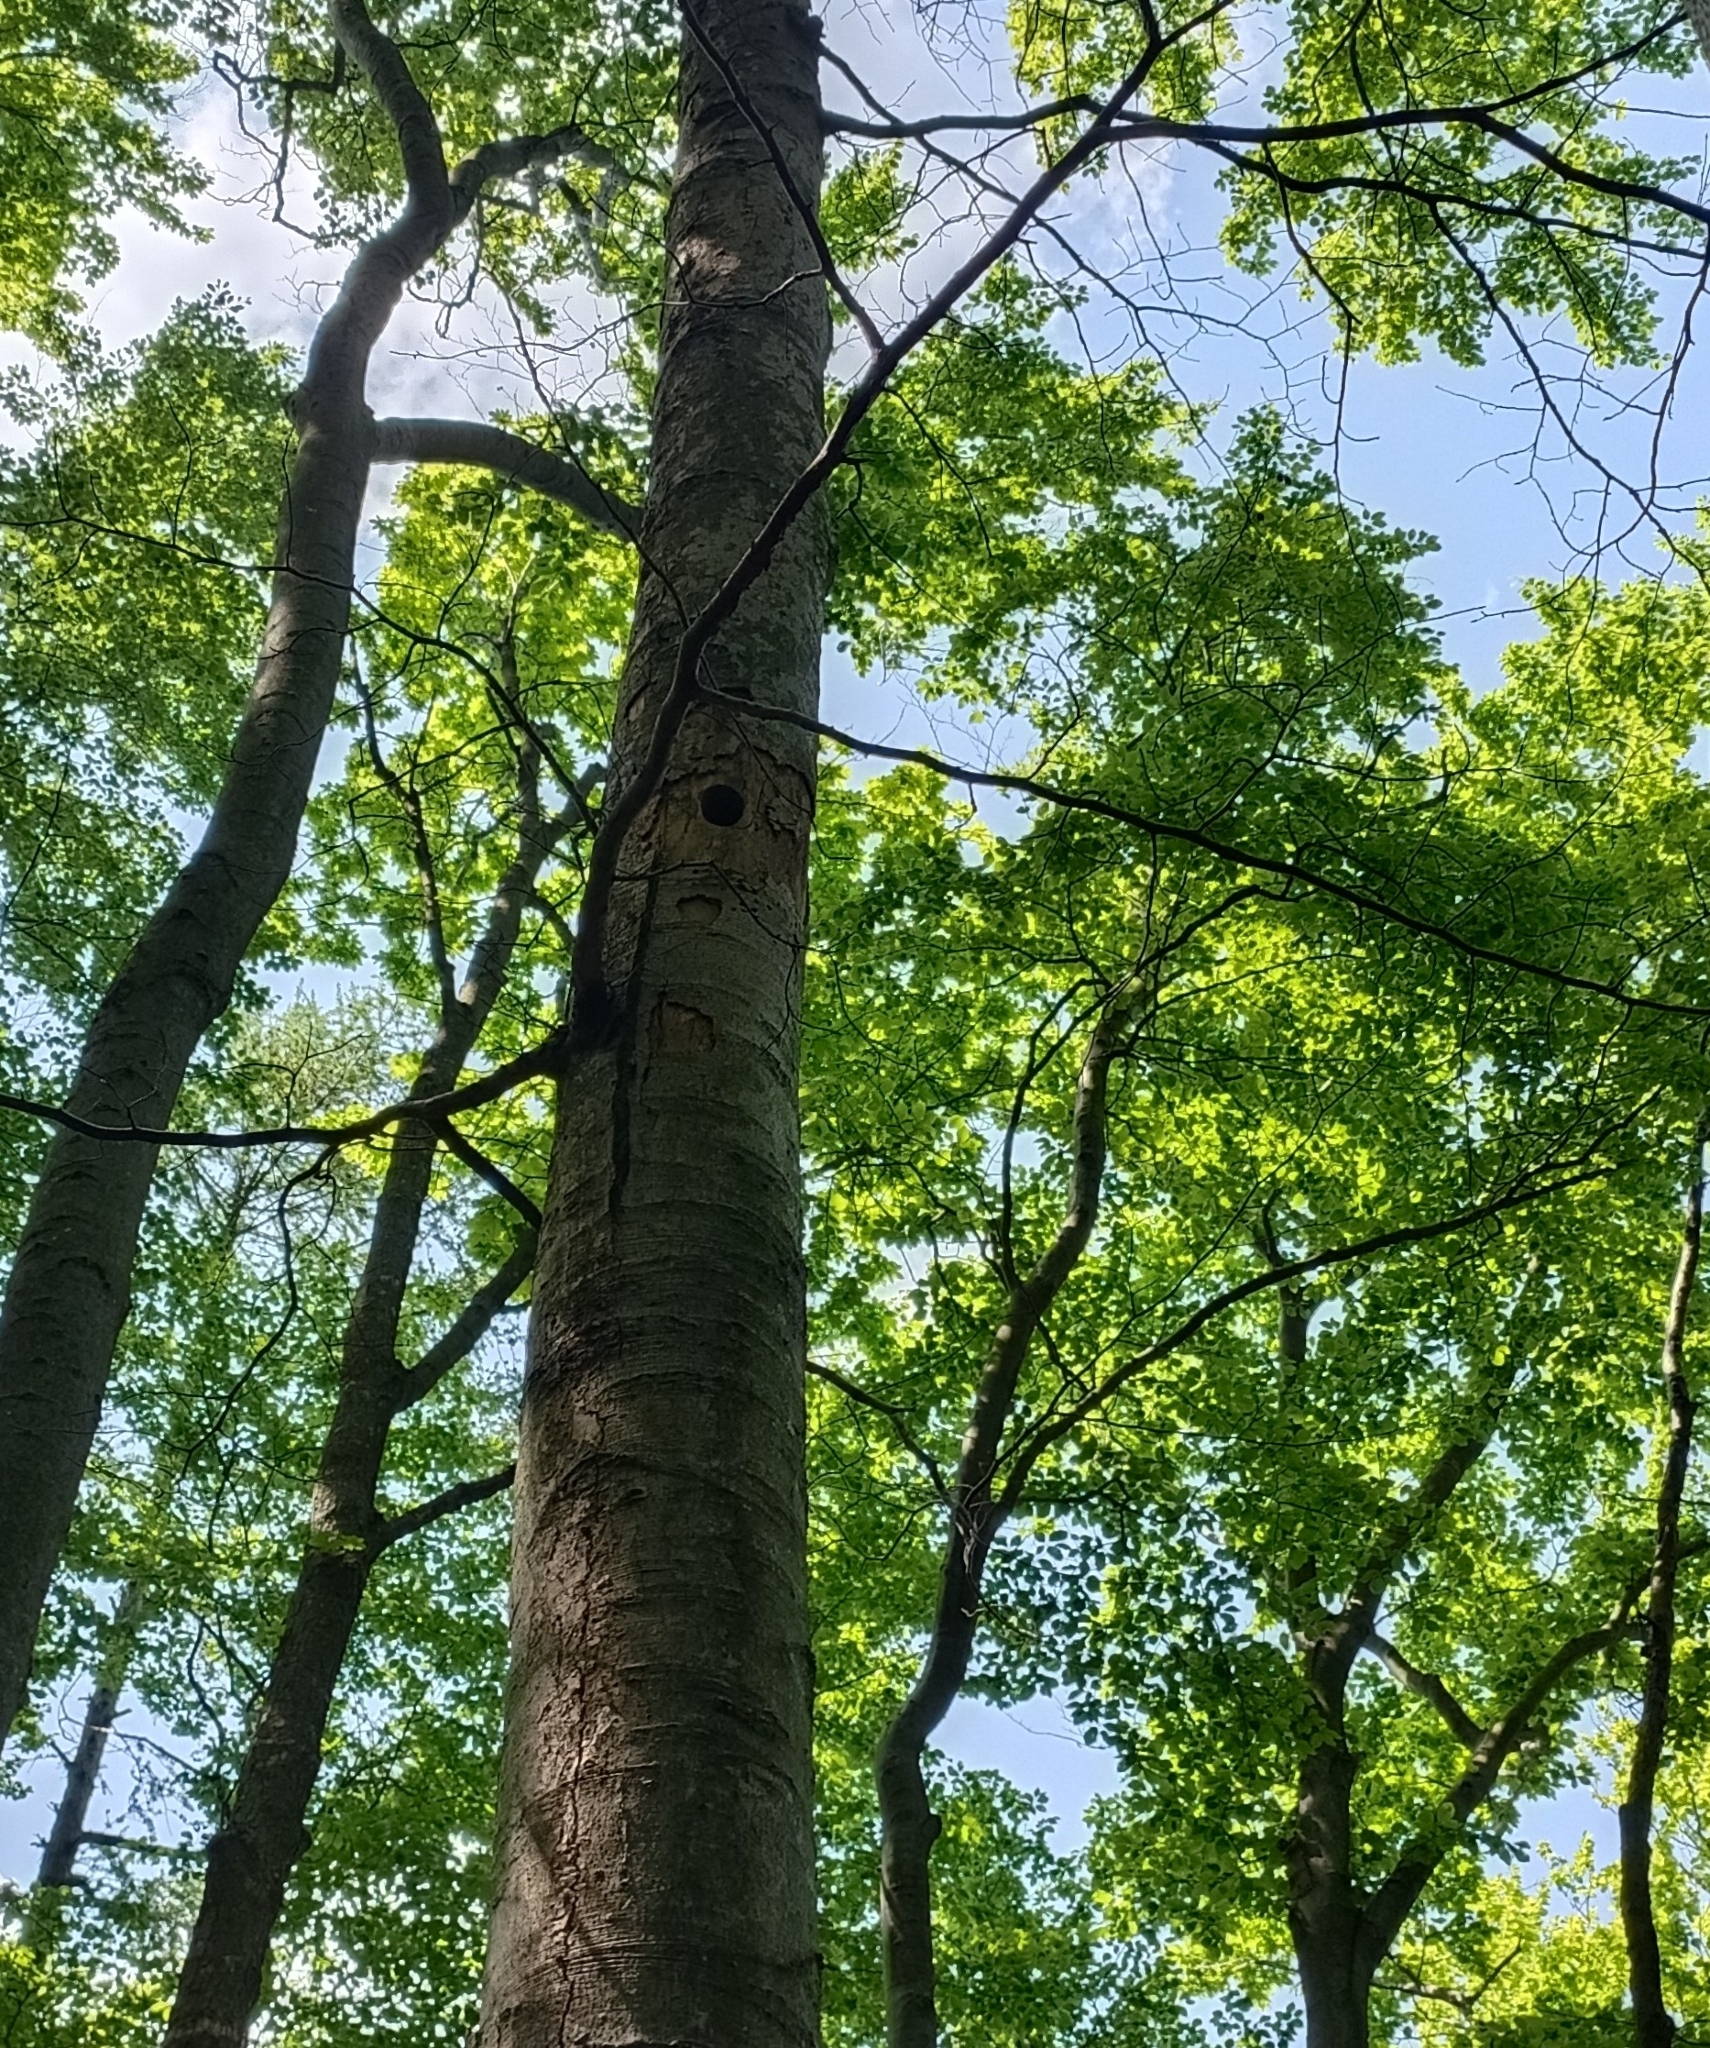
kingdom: Animalia
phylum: Chordata
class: Aves
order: Piciformes
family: Picidae
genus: Dendrocopos
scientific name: Dendrocopos major
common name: Great spotted woodpecker
